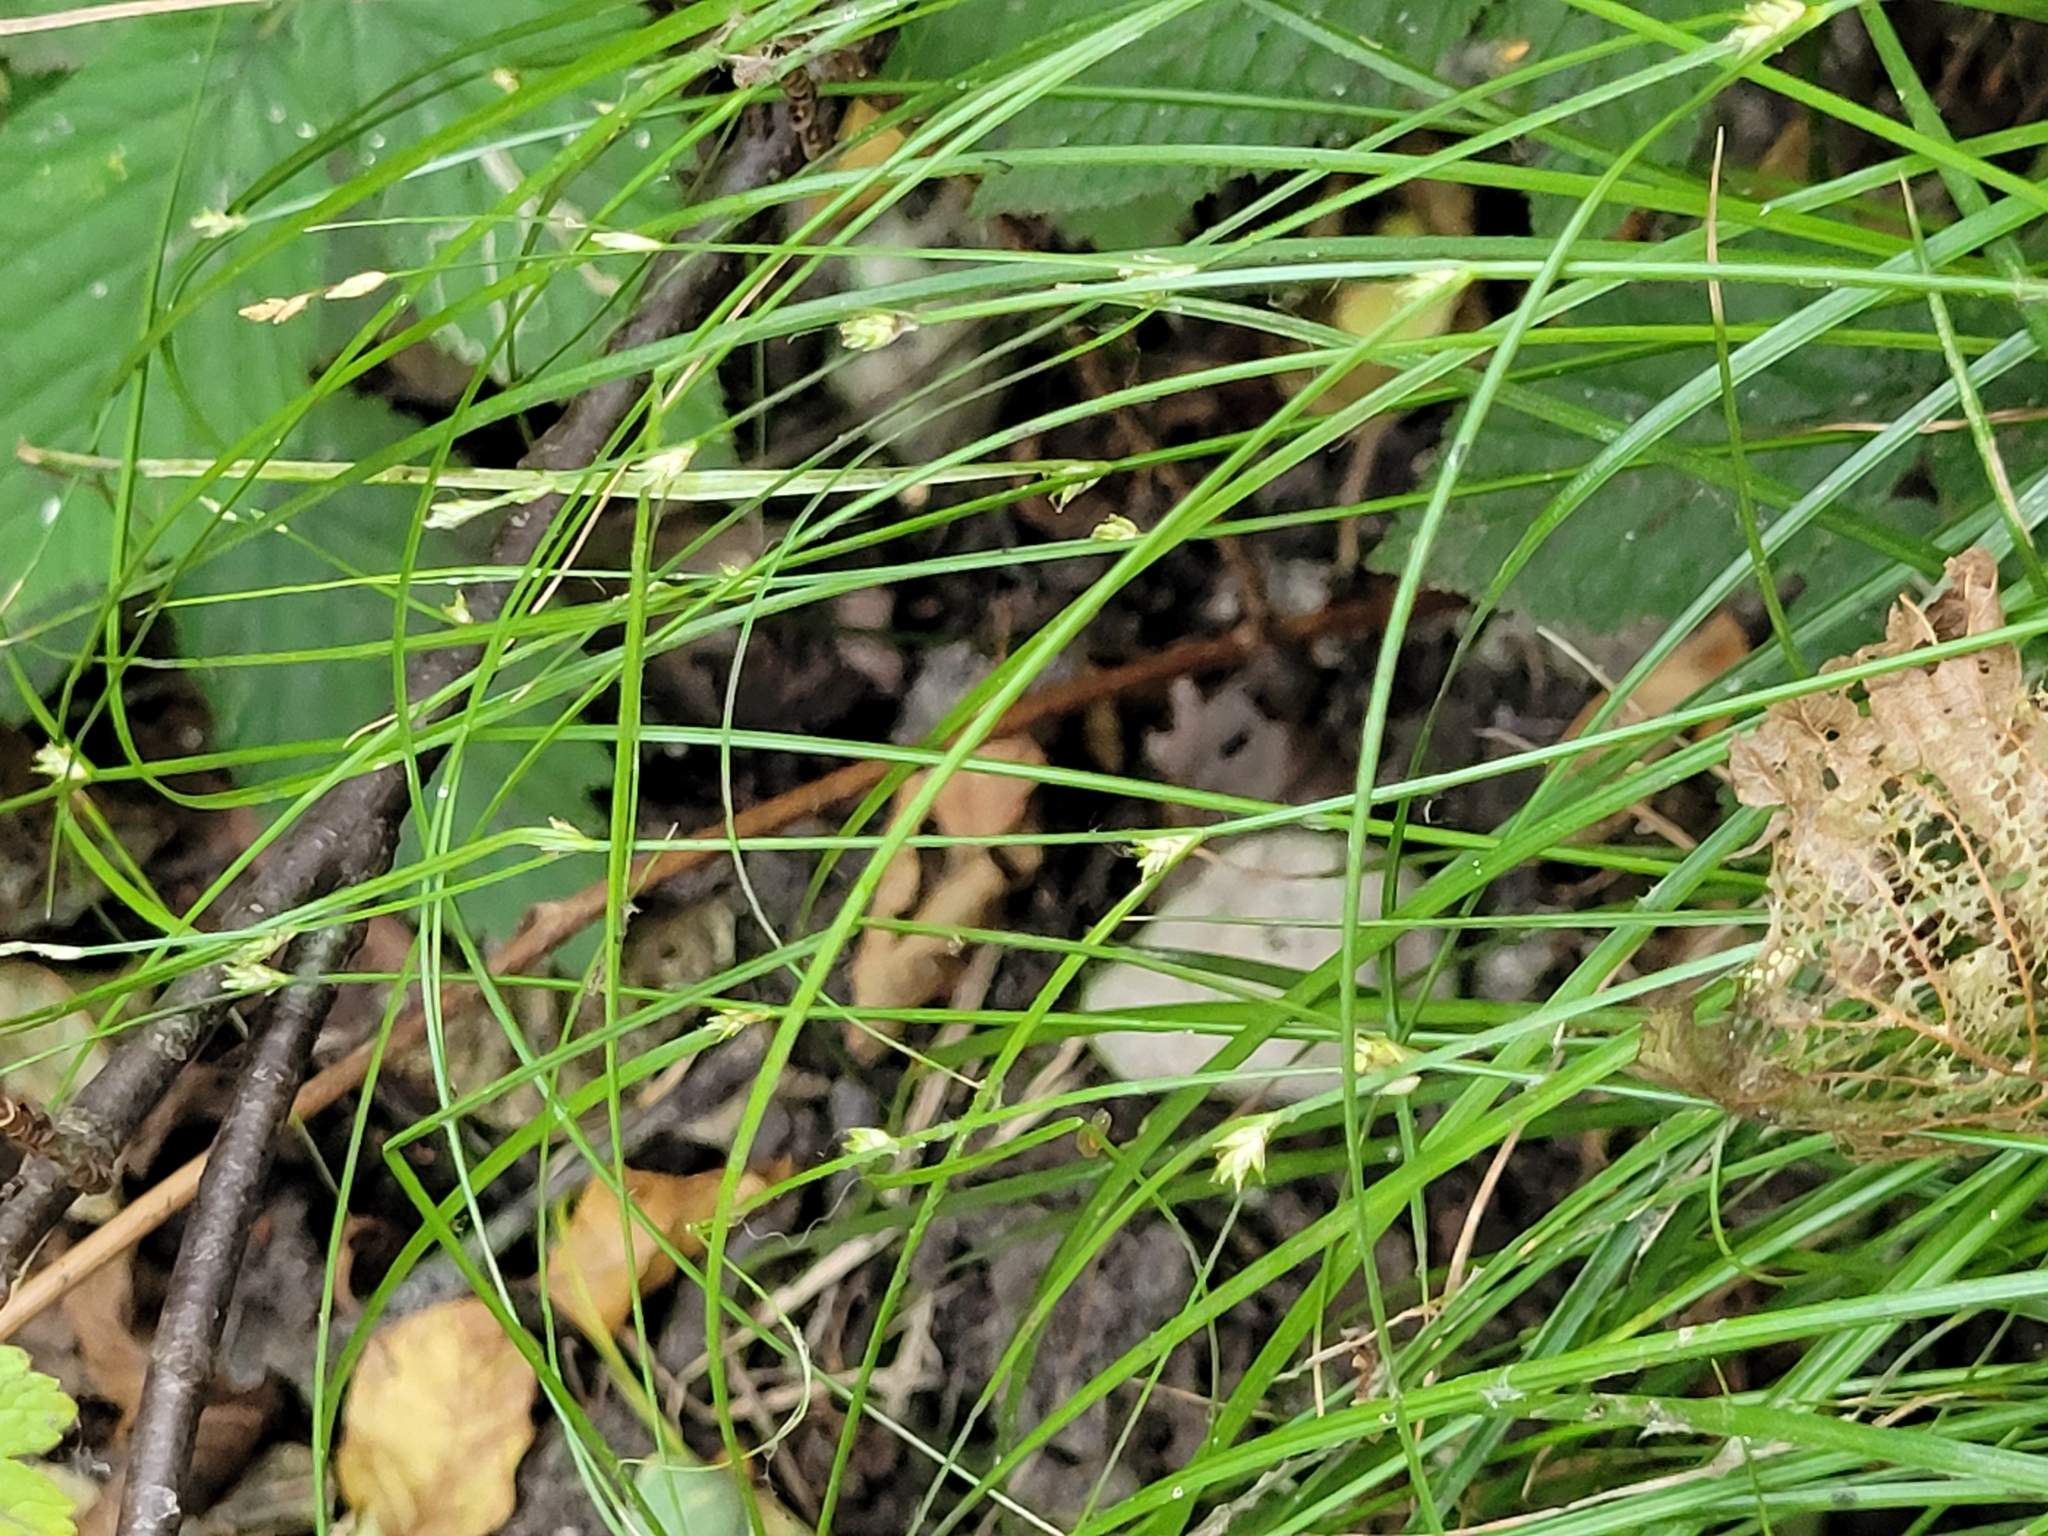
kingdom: Plantae
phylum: Tracheophyta
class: Liliopsida
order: Poales
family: Cyperaceae
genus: Carex
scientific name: Carex remota
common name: Remote sedge
